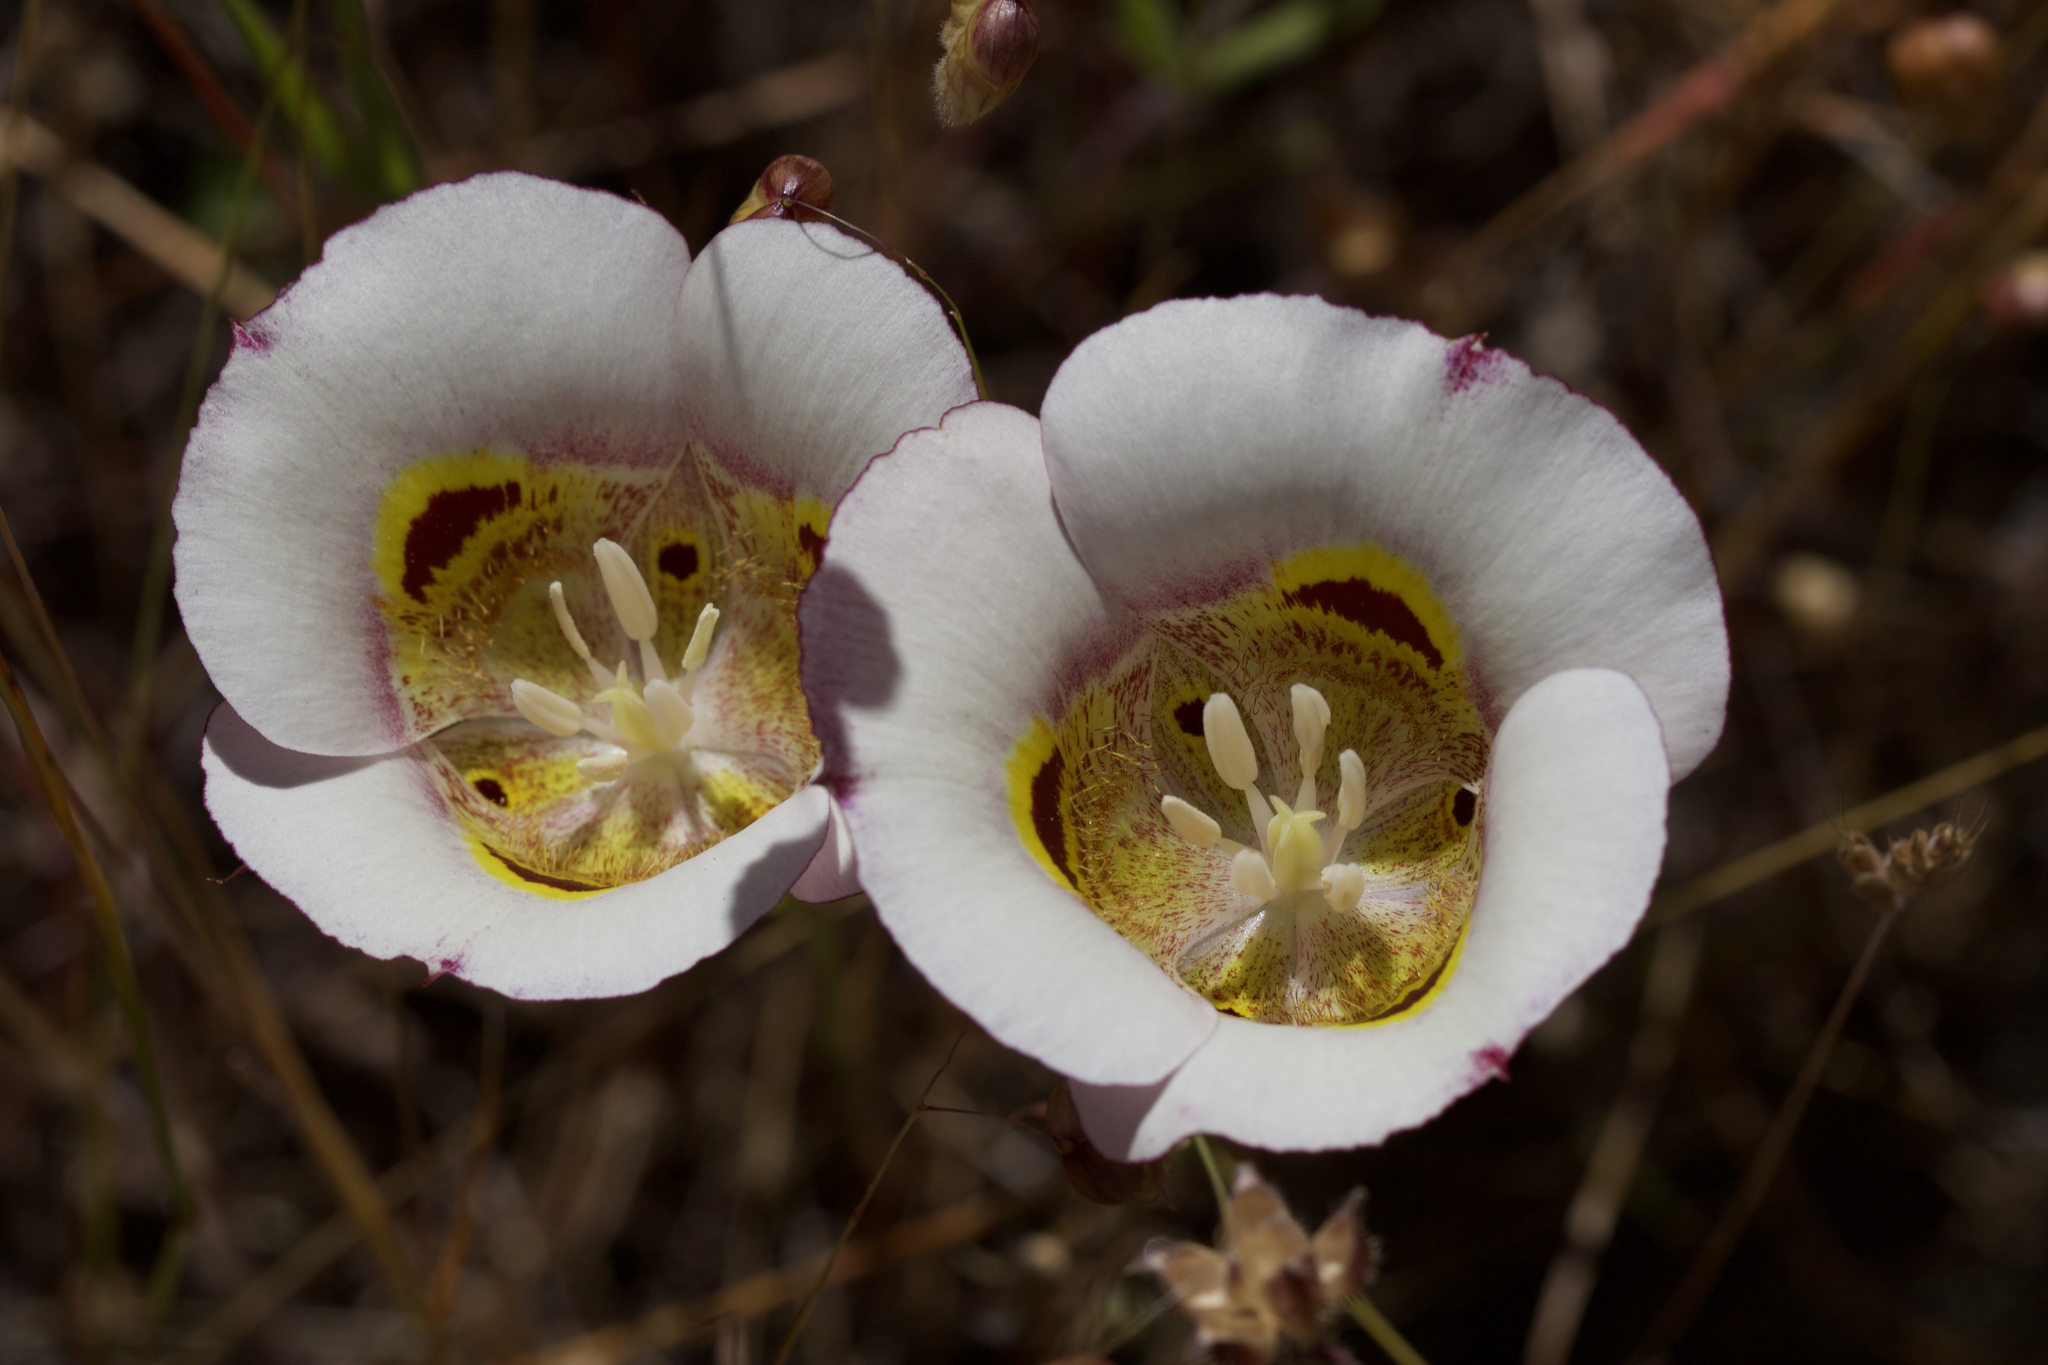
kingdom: Plantae
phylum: Tracheophyta
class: Liliopsida
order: Liliales
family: Liliaceae
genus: Calochortus
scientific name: Calochortus superbus
